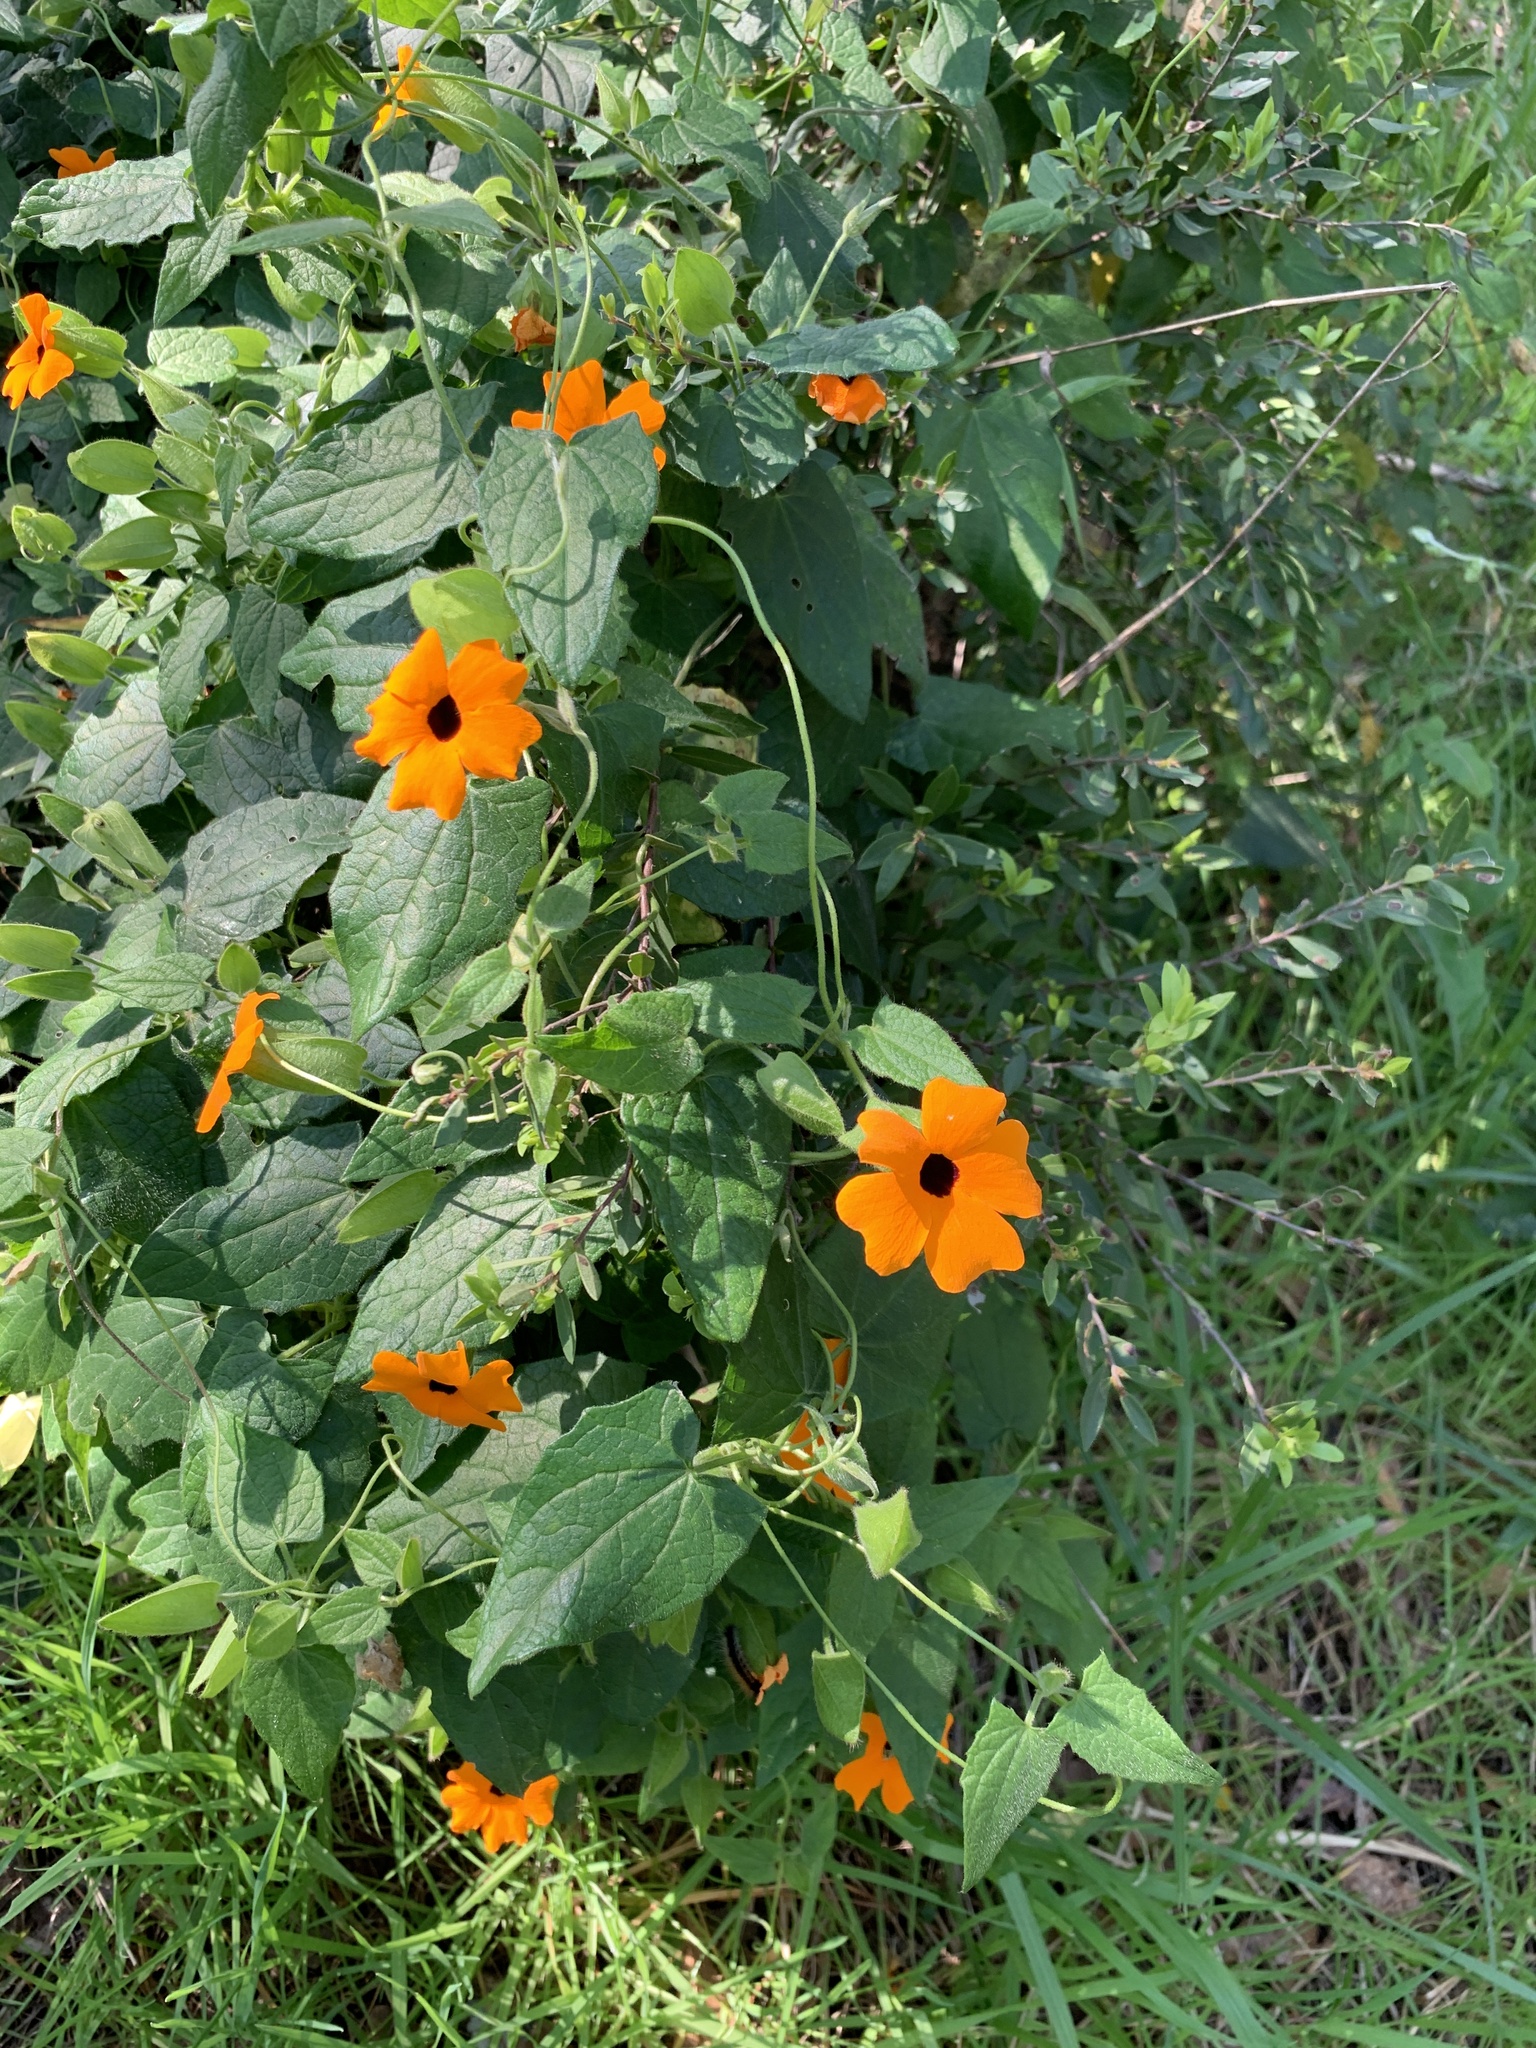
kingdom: Plantae
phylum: Tracheophyta
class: Magnoliopsida
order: Lamiales
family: Acanthaceae
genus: Thunbergia
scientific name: Thunbergia alata
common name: Blackeyed susan vine
